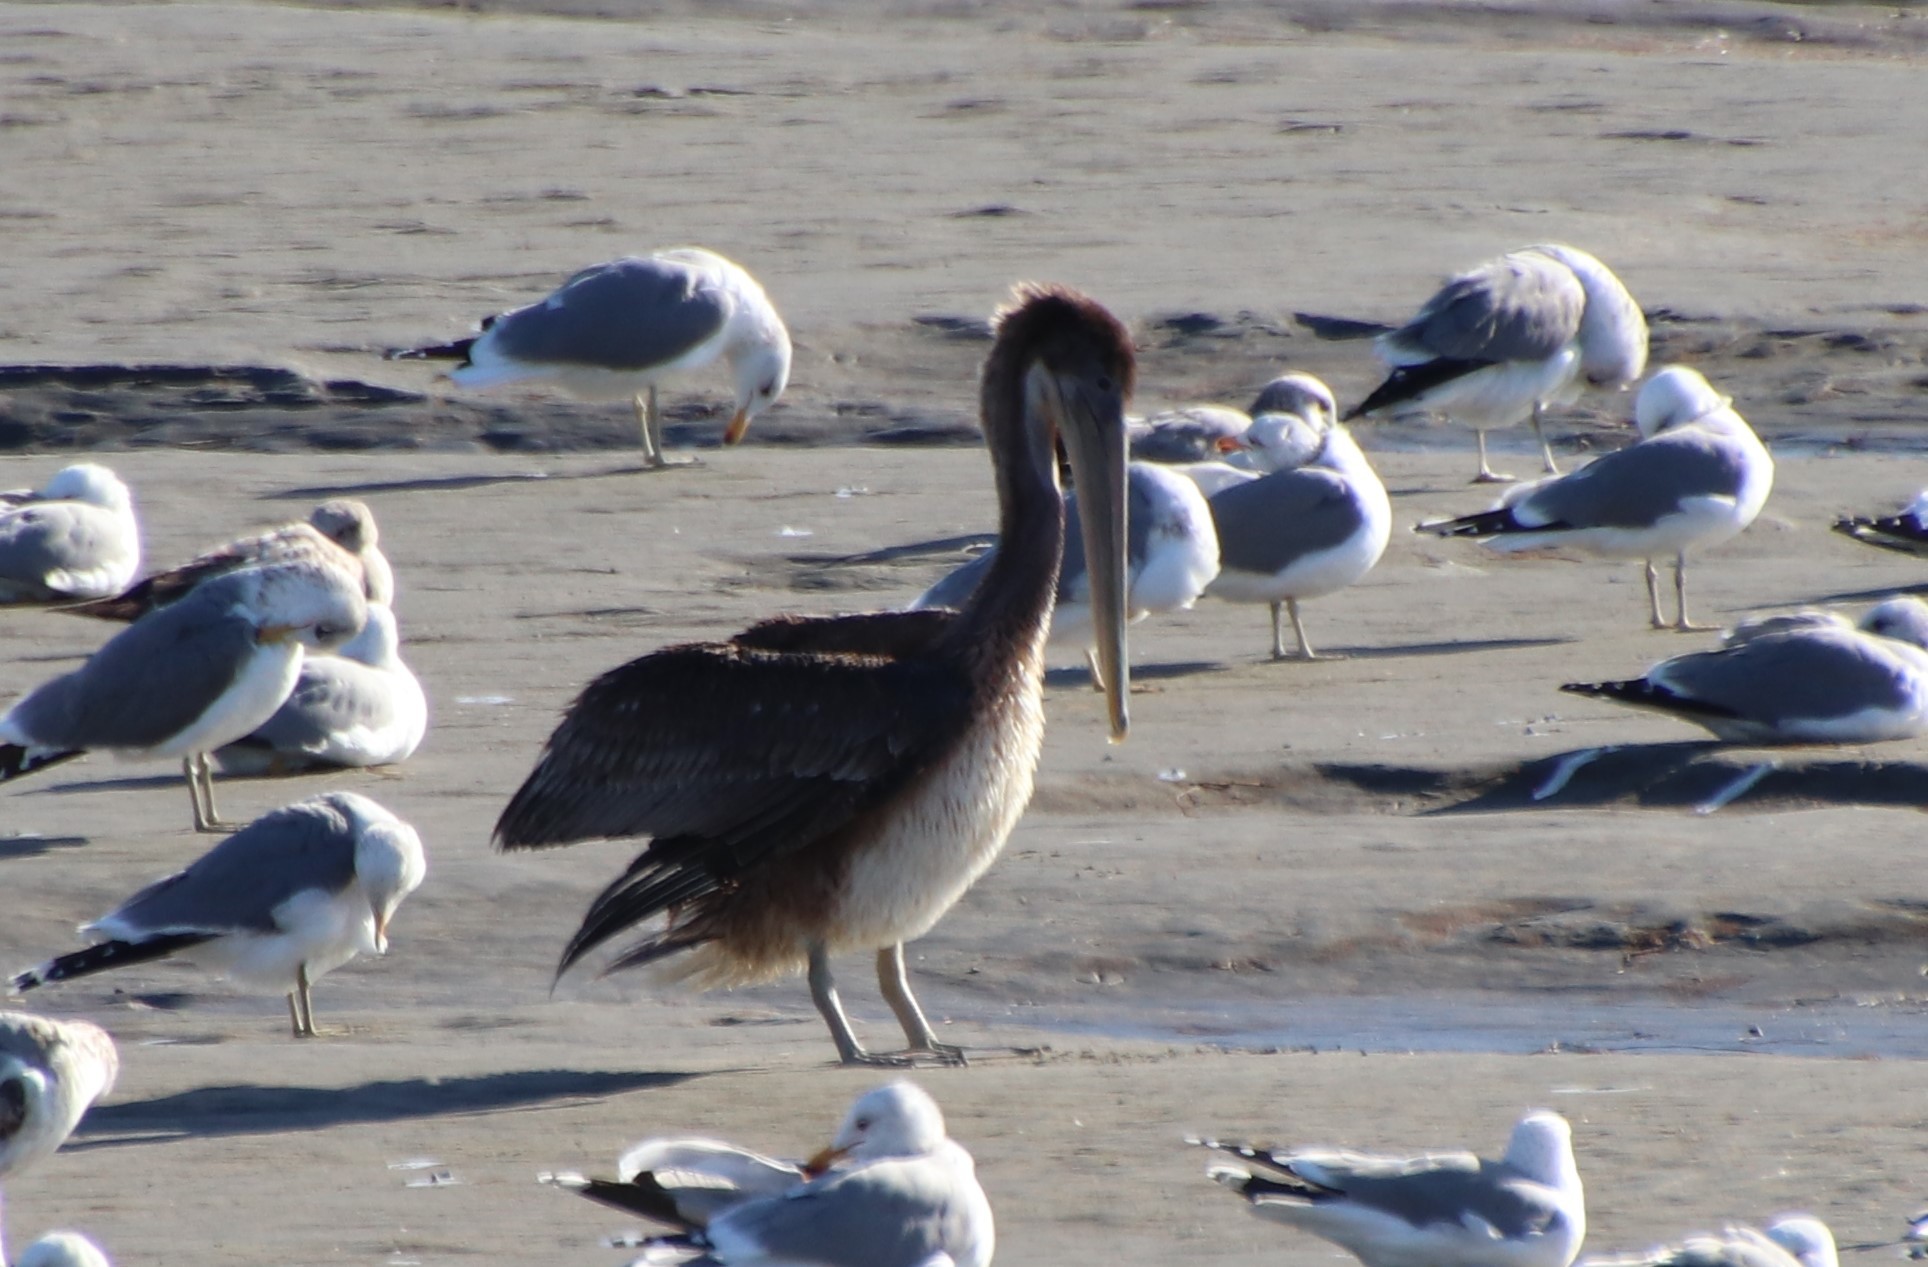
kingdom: Animalia
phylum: Chordata
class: Aves
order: Pelecaniformes
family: Pelecanidae
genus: Pelecanus
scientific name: Pelecanus occidentalis
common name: Brown pelican
